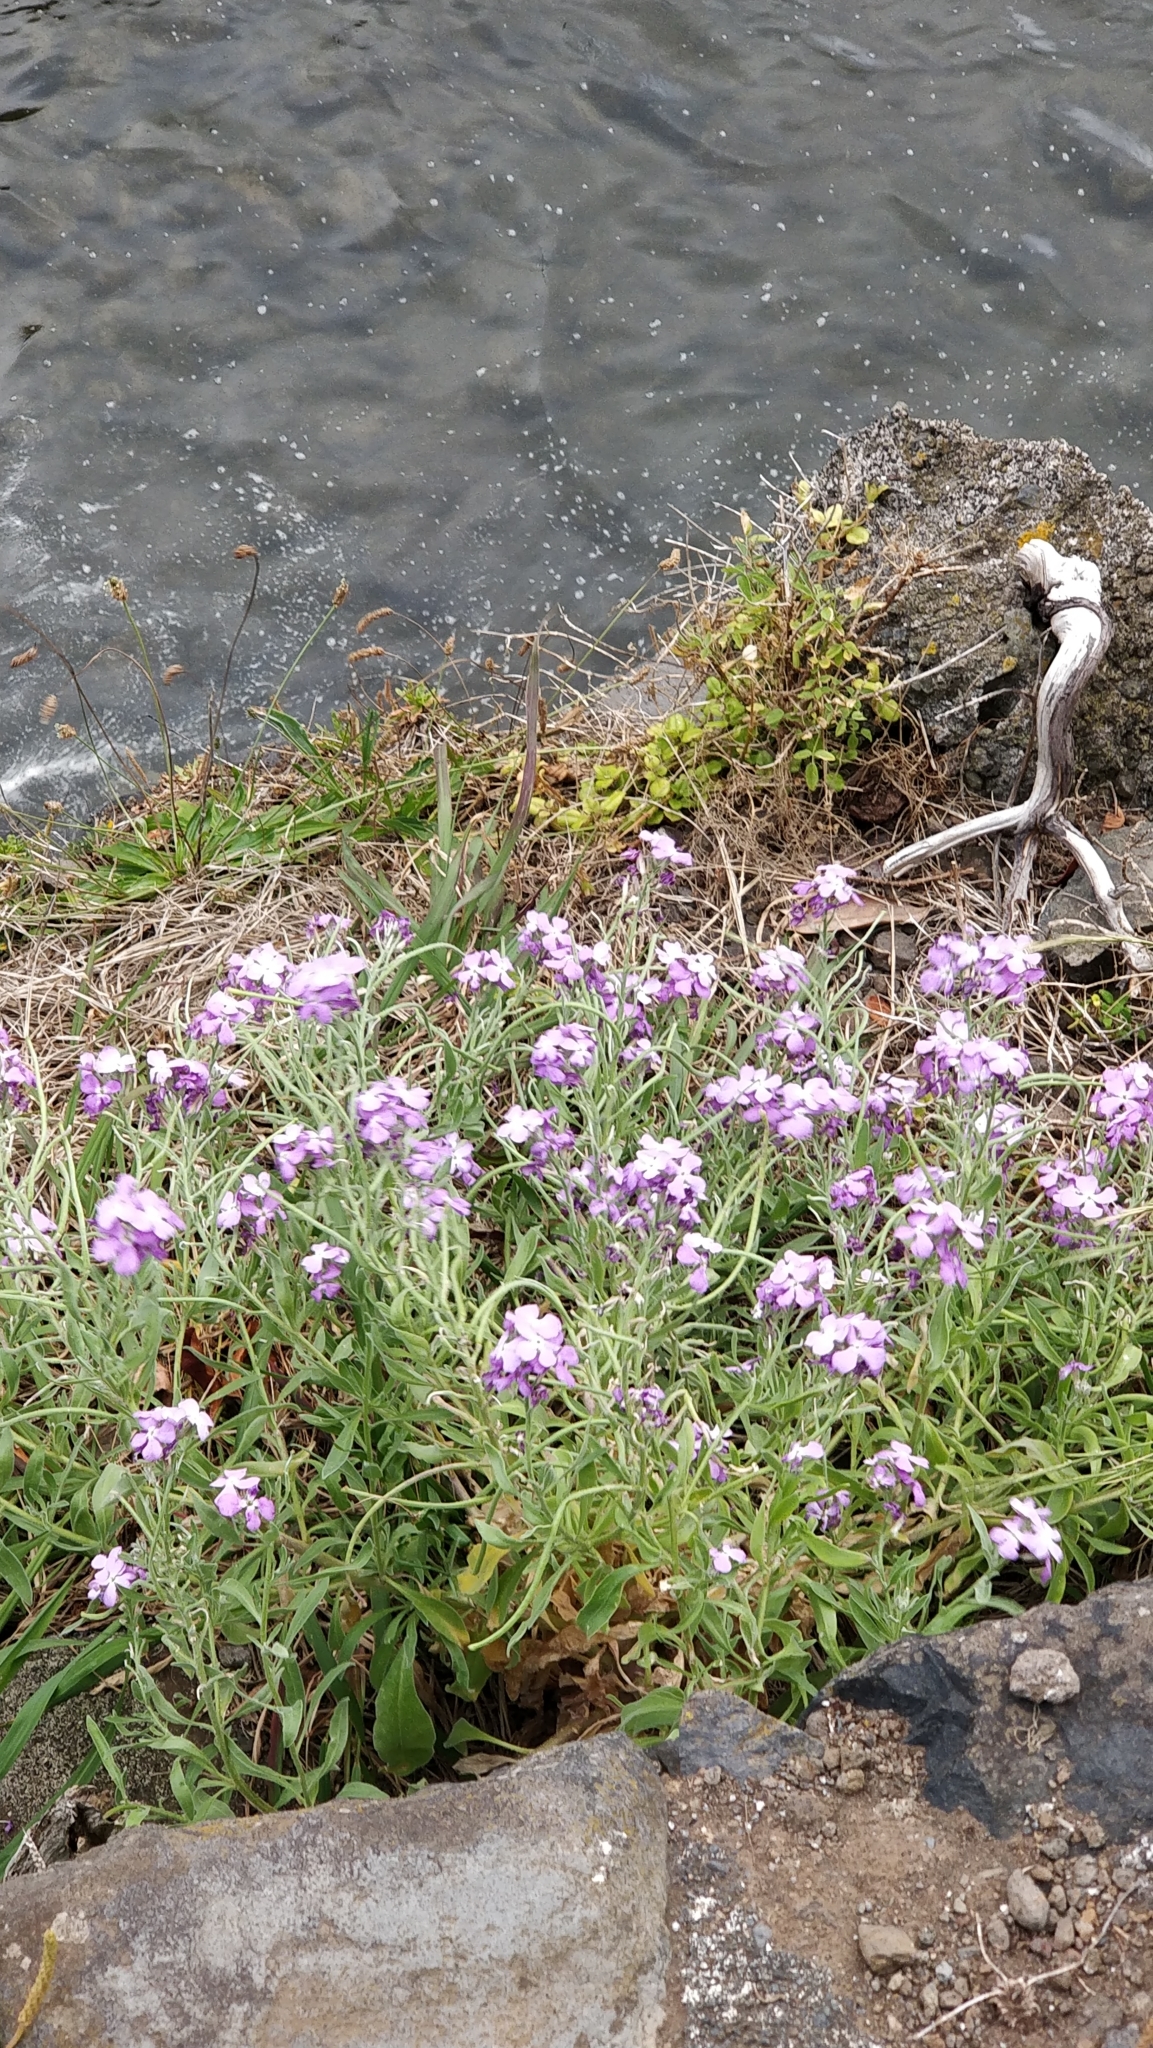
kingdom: Plantae
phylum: Tracheophyta
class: Magnoliopsida
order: Brassicales
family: Brassicaceae
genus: Matthiola
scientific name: Matthiola maderensis
